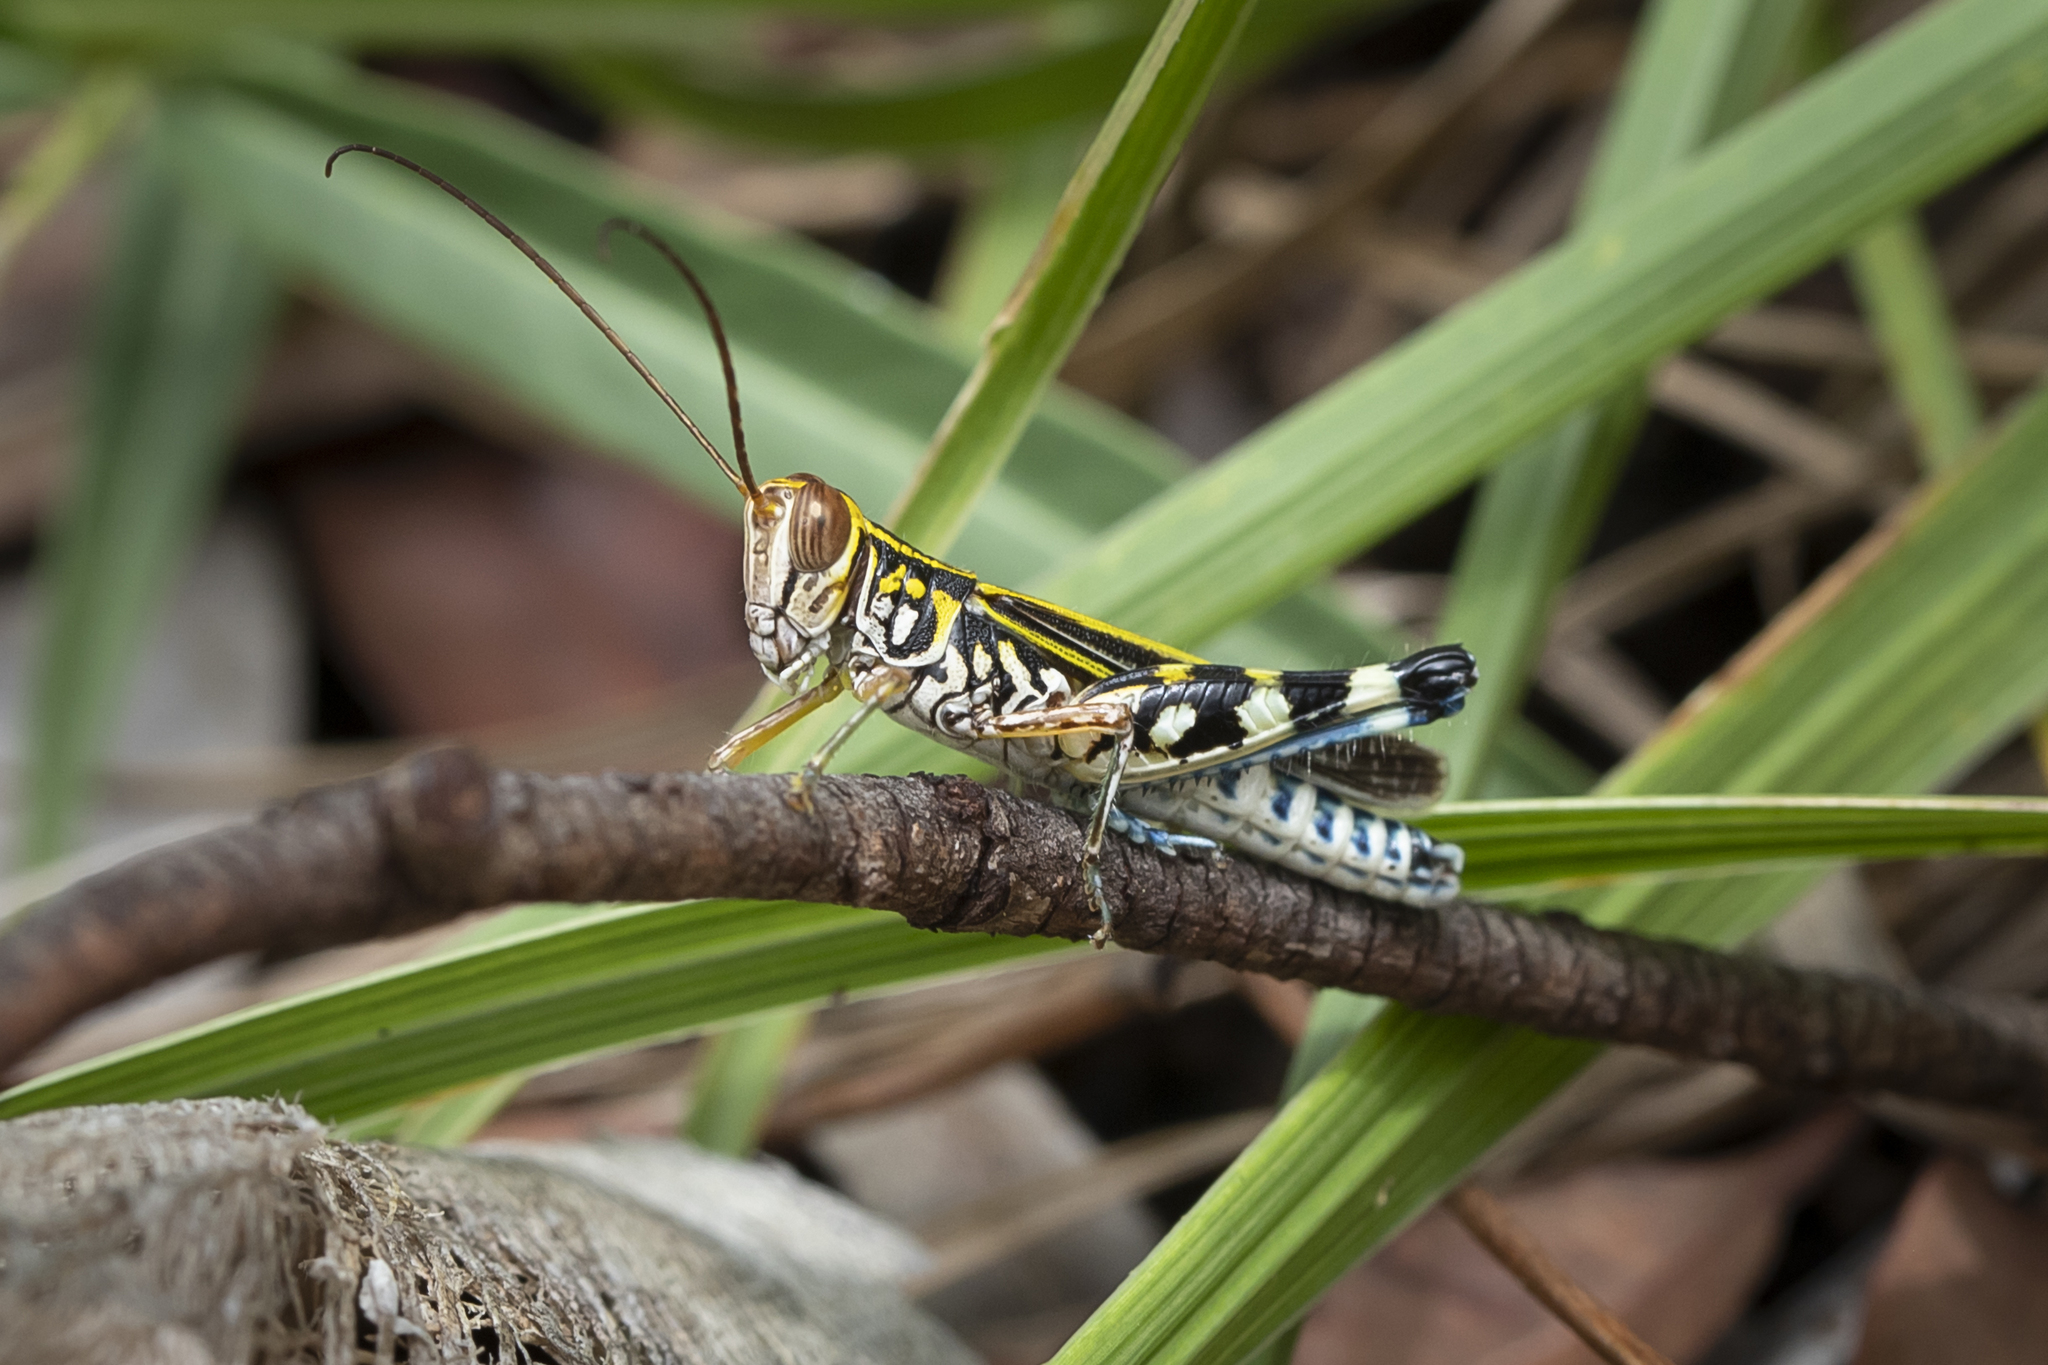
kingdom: Animalia
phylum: Arthropoda
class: Insecta
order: Orthoptera
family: Acrididae
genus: Zebratula
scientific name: Zebratula flavonigra
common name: Zebra grasshopper
